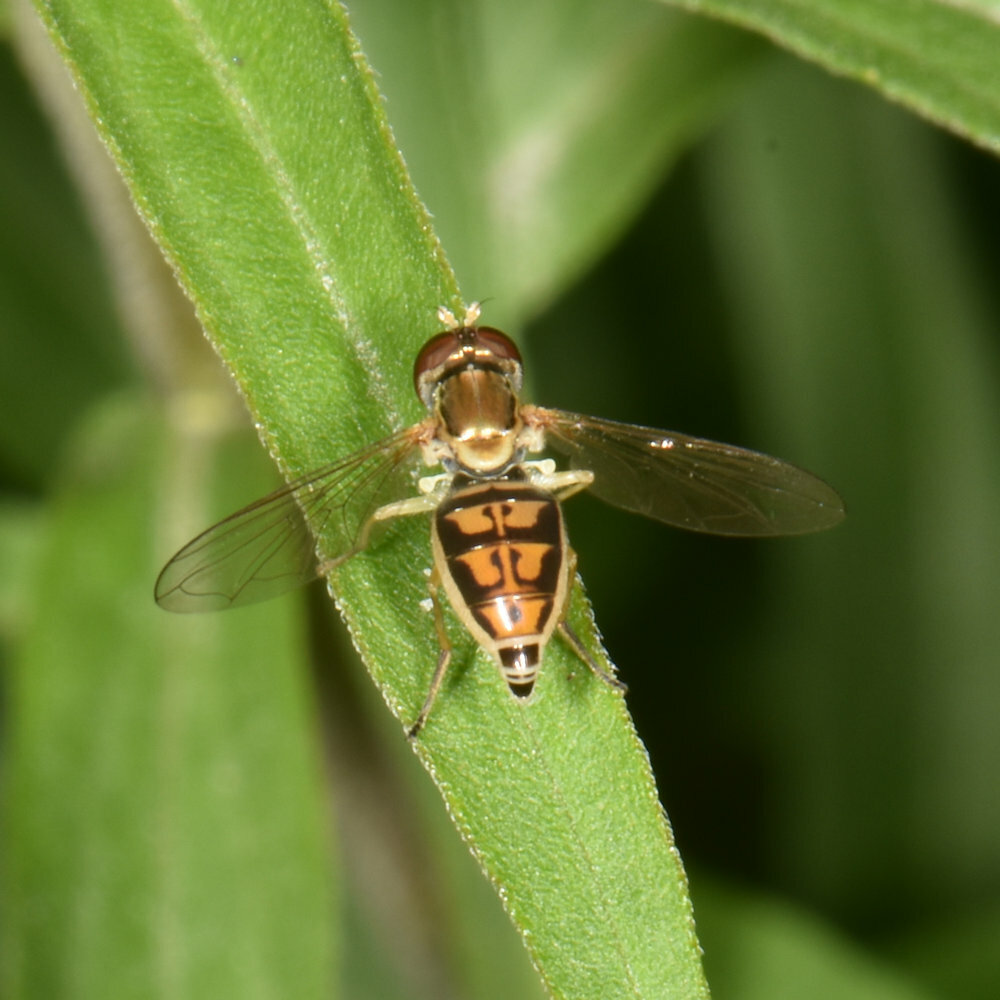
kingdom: Animalia
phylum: Arthropoda
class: Insecta
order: Diptera
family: Syrphidae
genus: Toxomerus
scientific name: Toxomerus marginatus
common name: Syrphid fly
